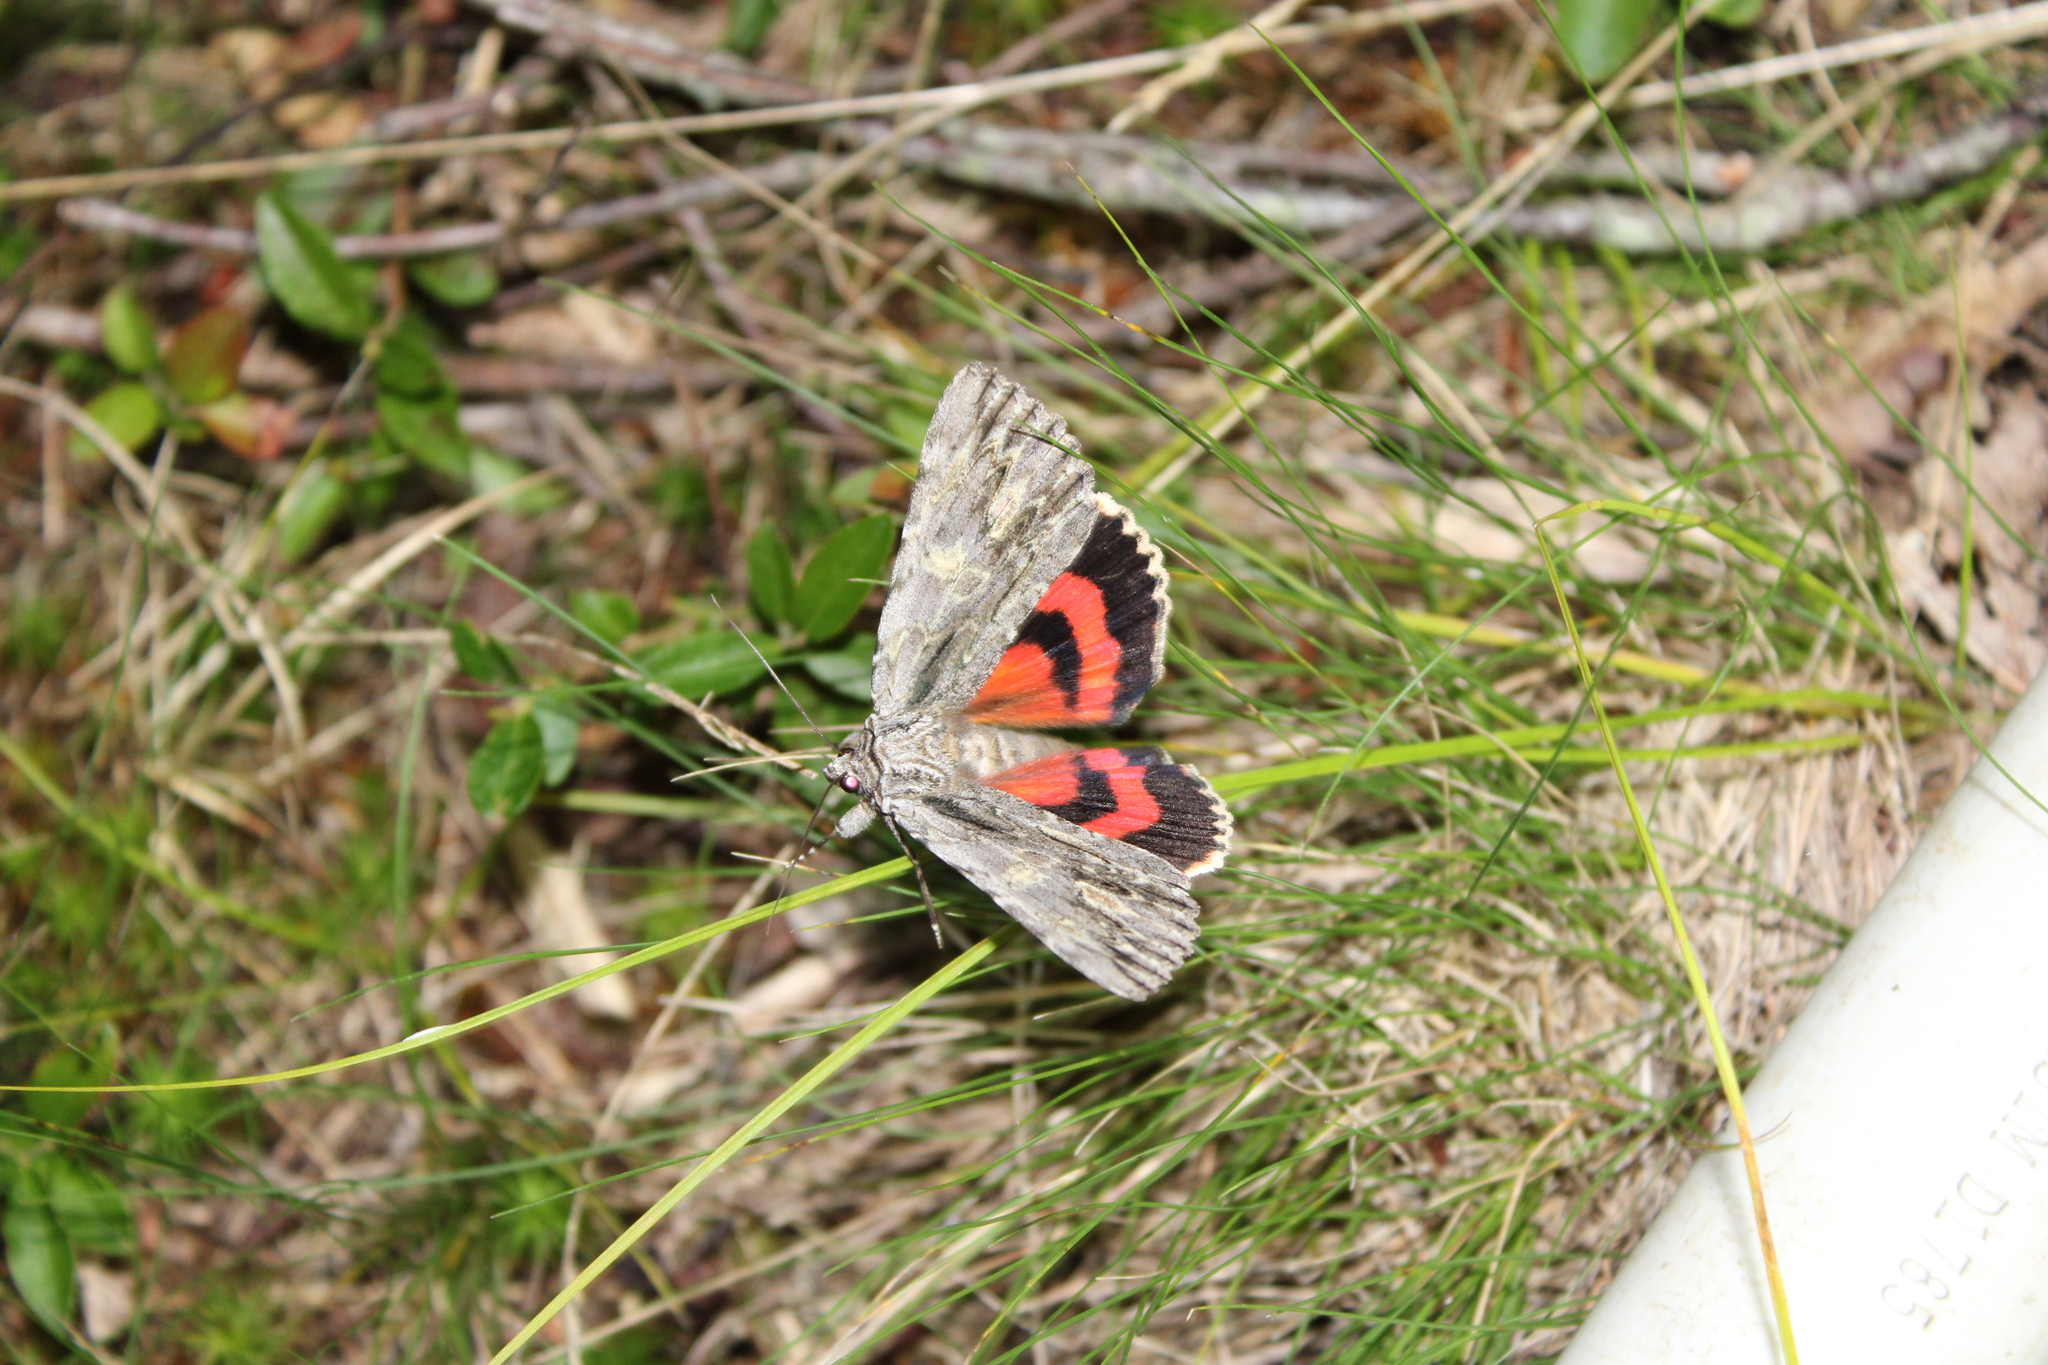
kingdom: Animalia
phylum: Arthropoda
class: Insecta
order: Lepidoptera
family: Erebidae
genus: Catocala
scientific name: Catocala coccinata
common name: Scarlet underwing
